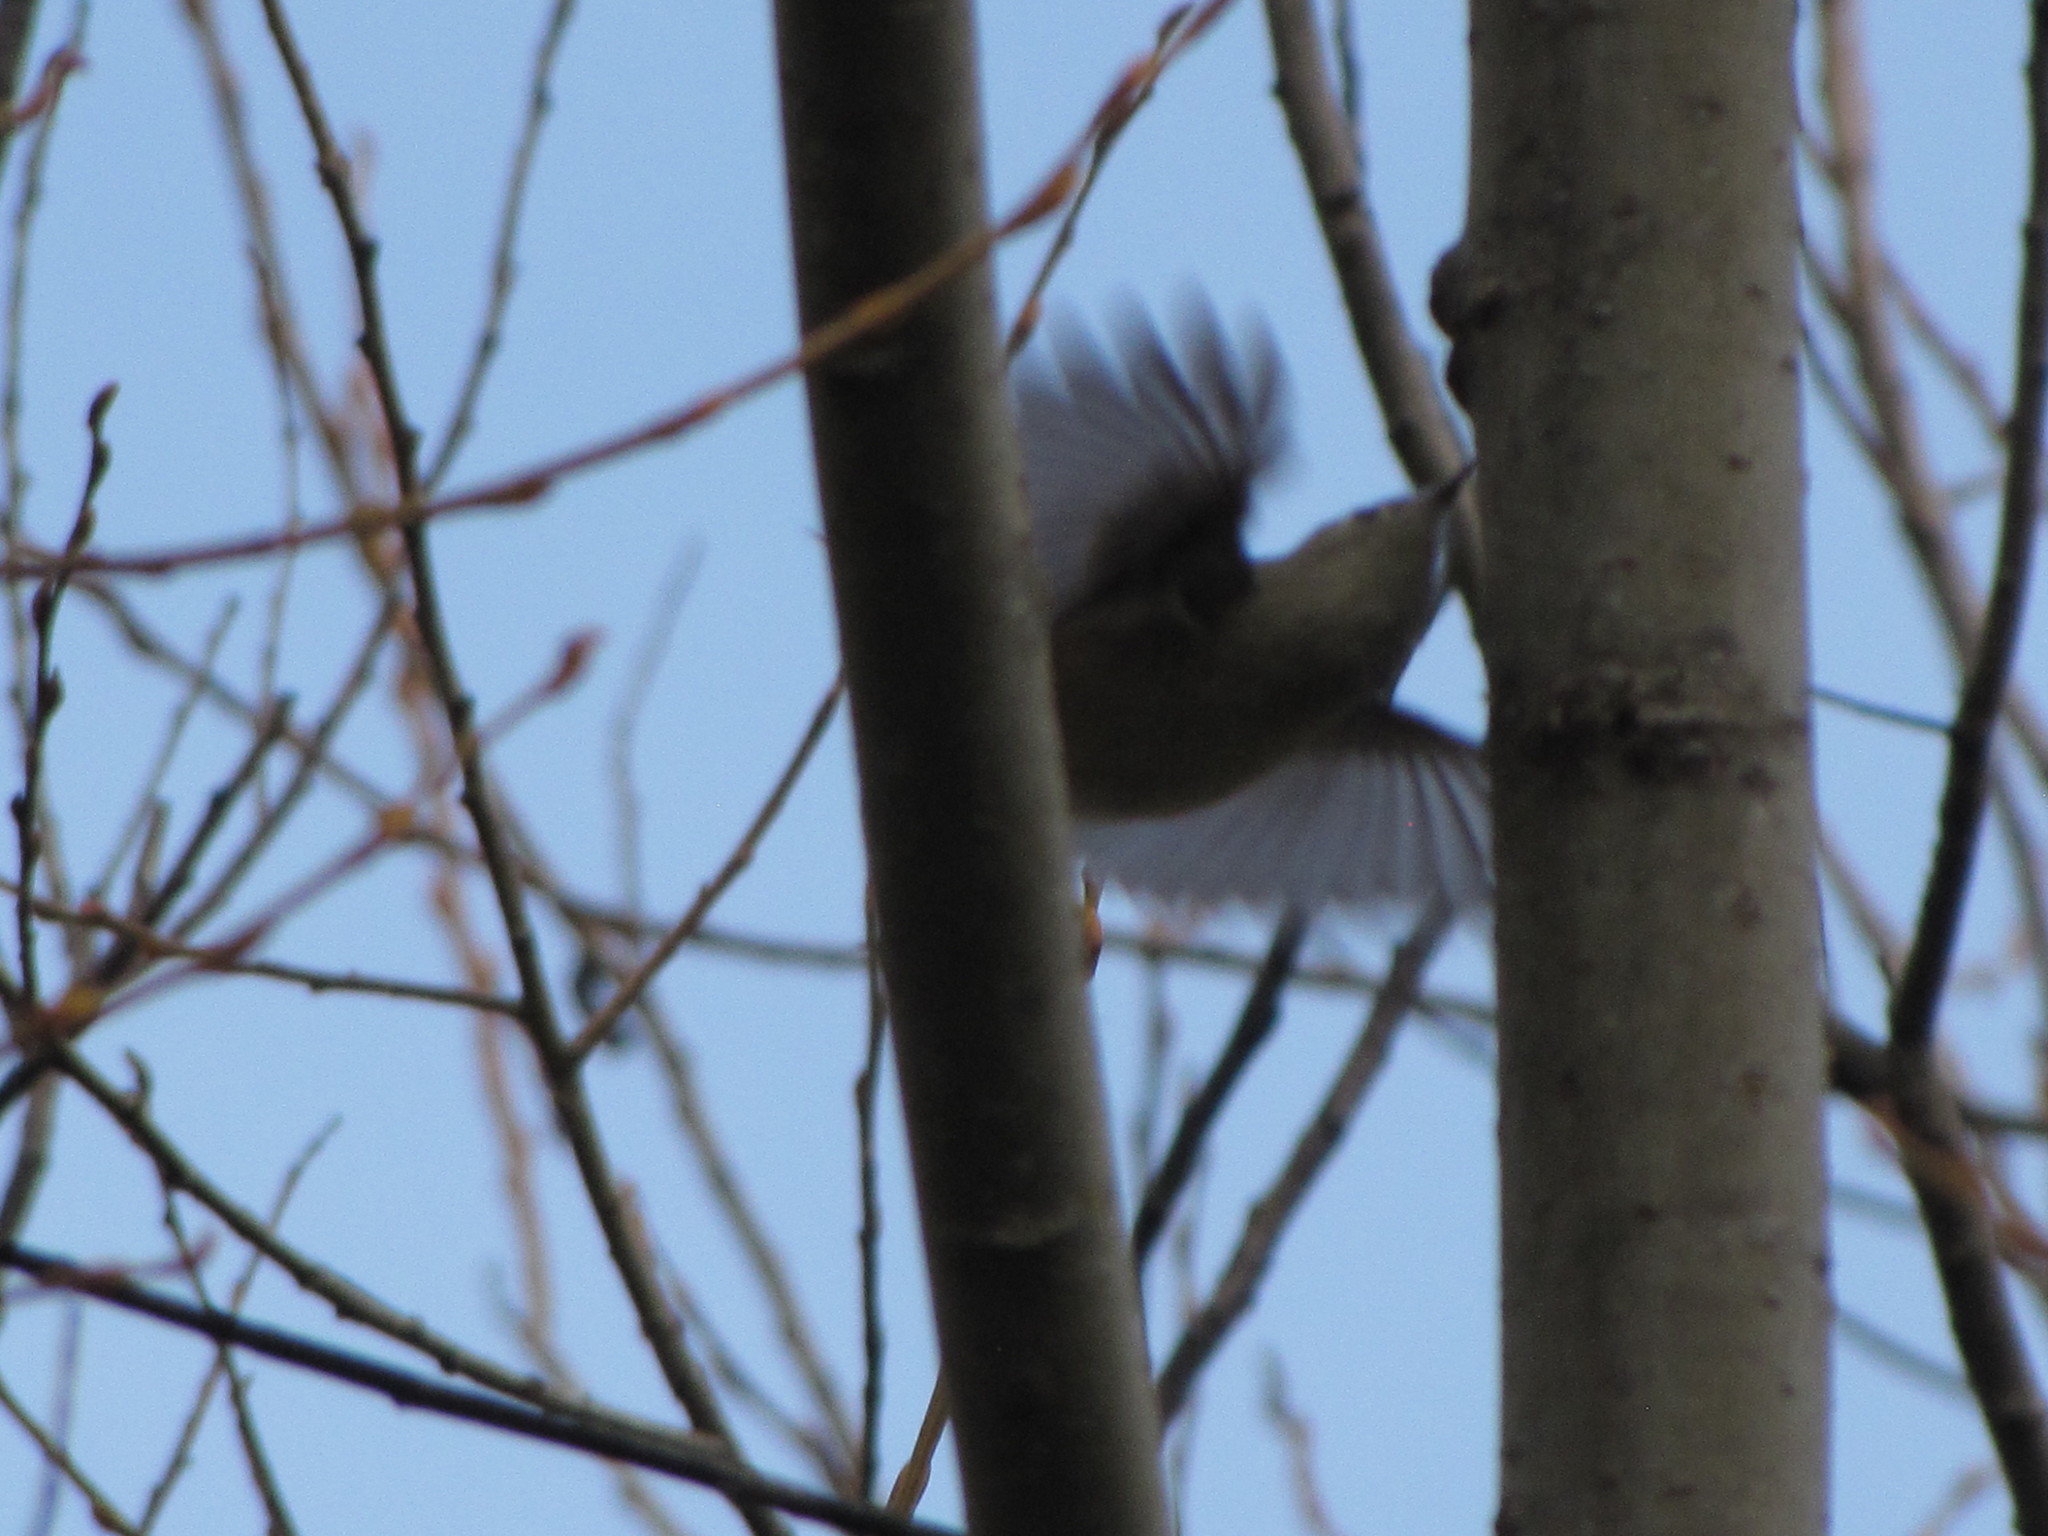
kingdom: Animalia
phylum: Chordata
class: Aves
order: Passeriformes
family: Regulidae
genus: Regulus
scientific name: Regulus calendula
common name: Ruby-crowned kinglet
